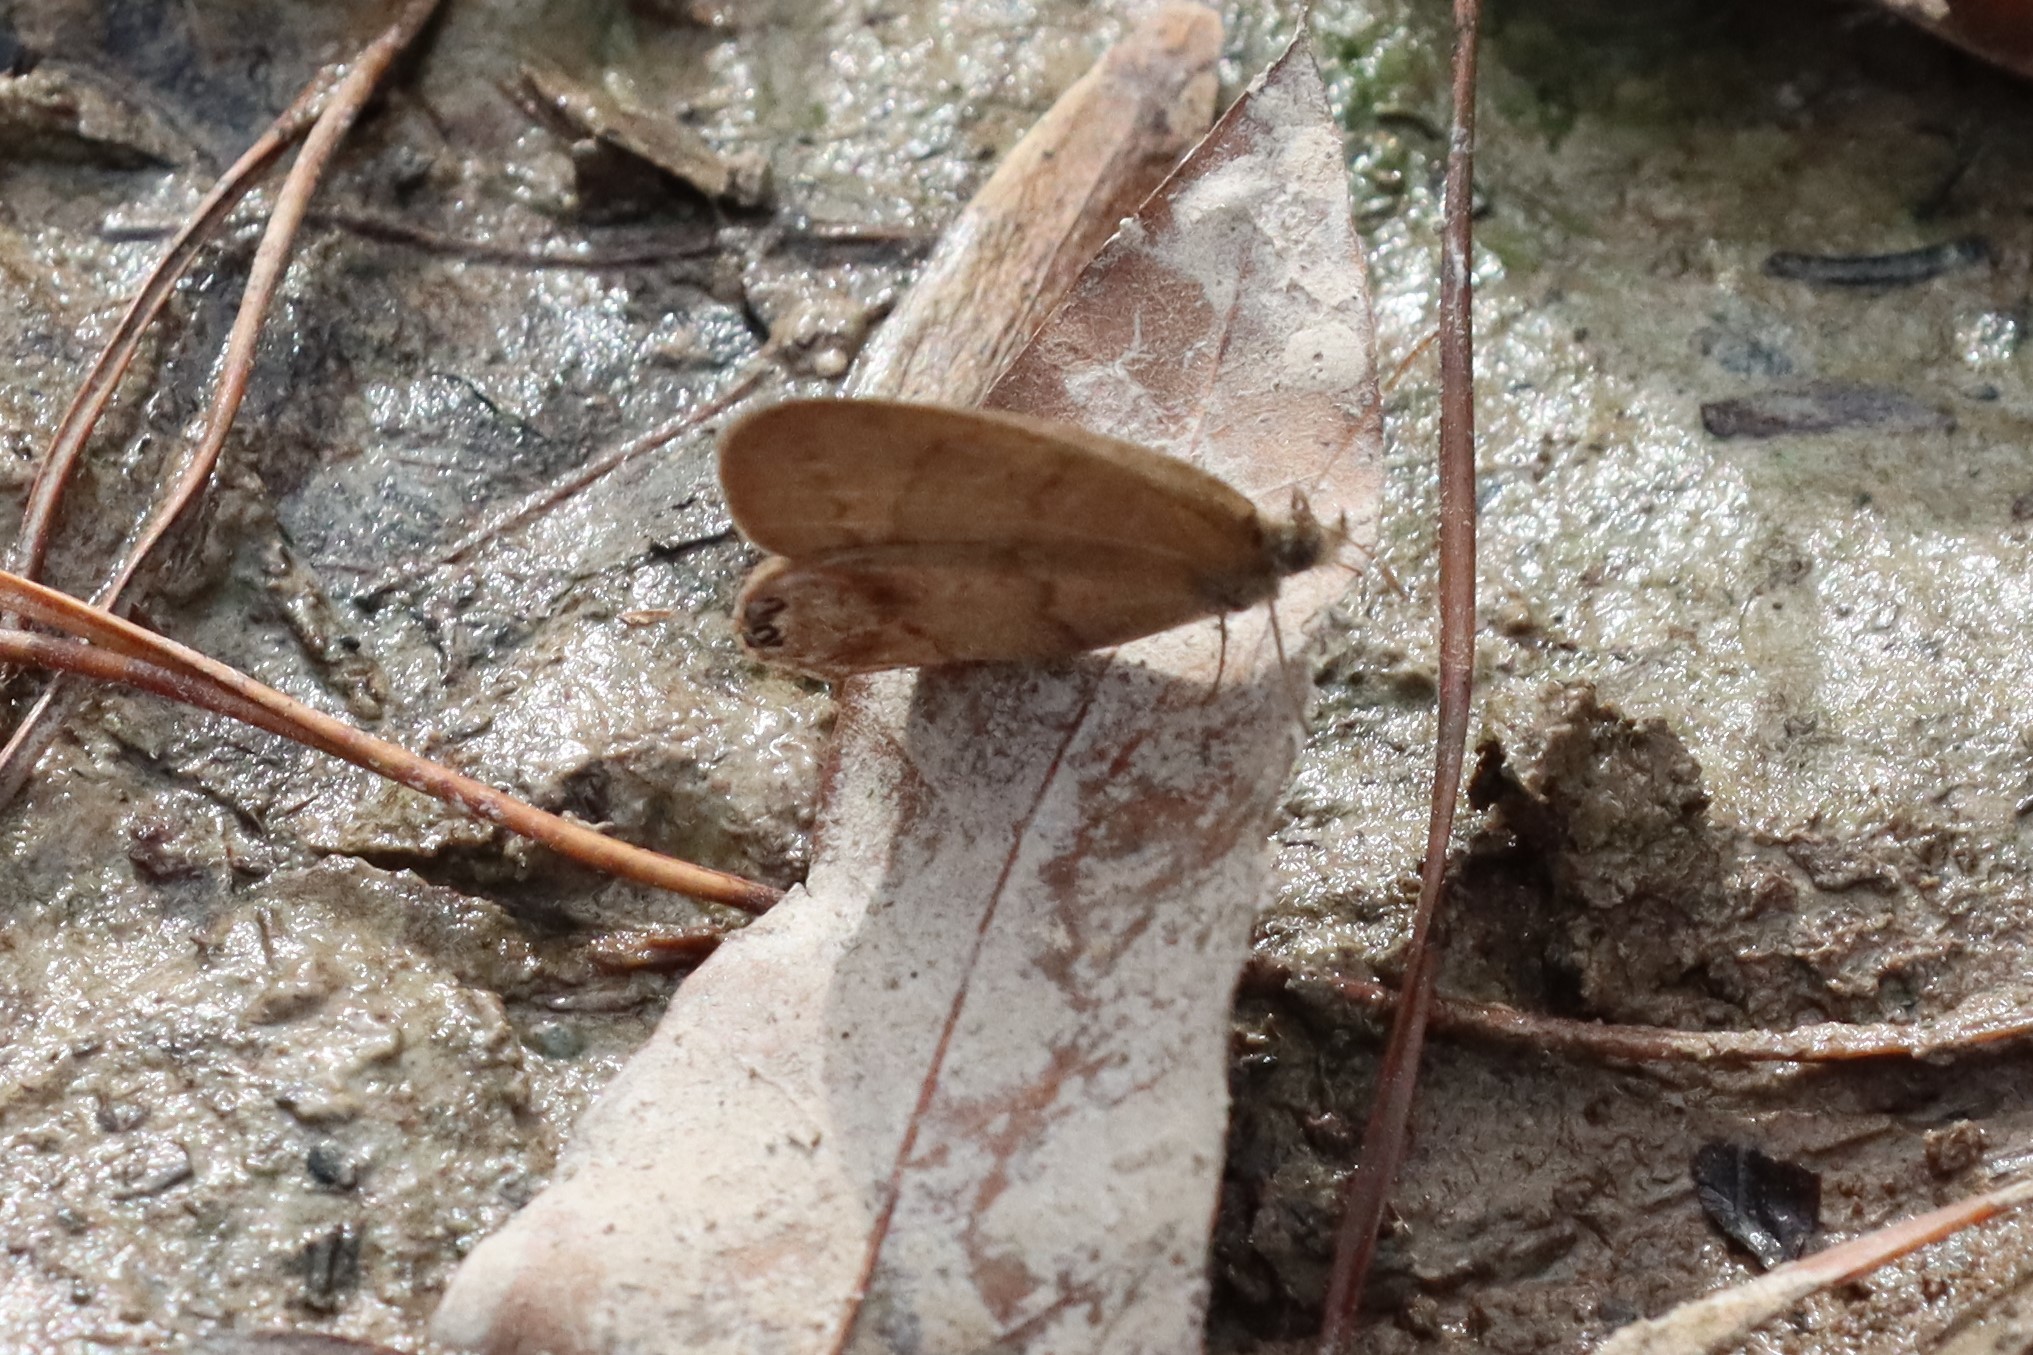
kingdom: Animalia
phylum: Arthropoda
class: Insecta
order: Lepidoptera
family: Nymphalidae
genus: Euptychia
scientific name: Euptychia cornelius
